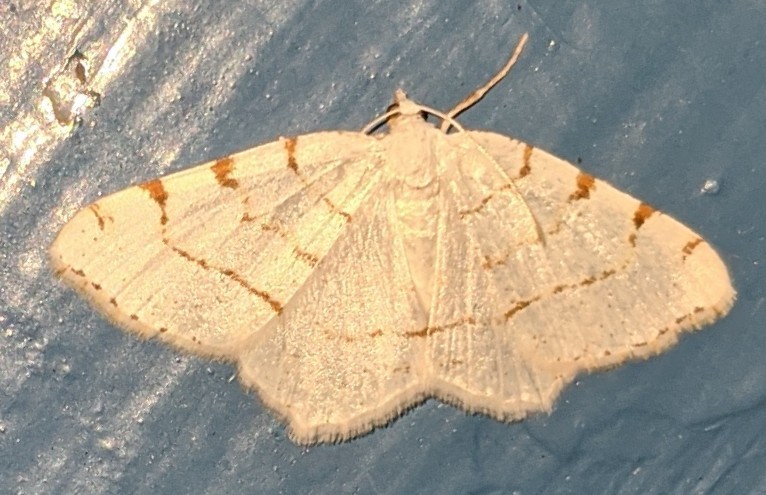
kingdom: Animalia
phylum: Arthropoda
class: Insecta
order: Lepidoptera
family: Geometridae
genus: Macaria
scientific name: Macaria pustularia
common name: Lesser maple spanworm moth
